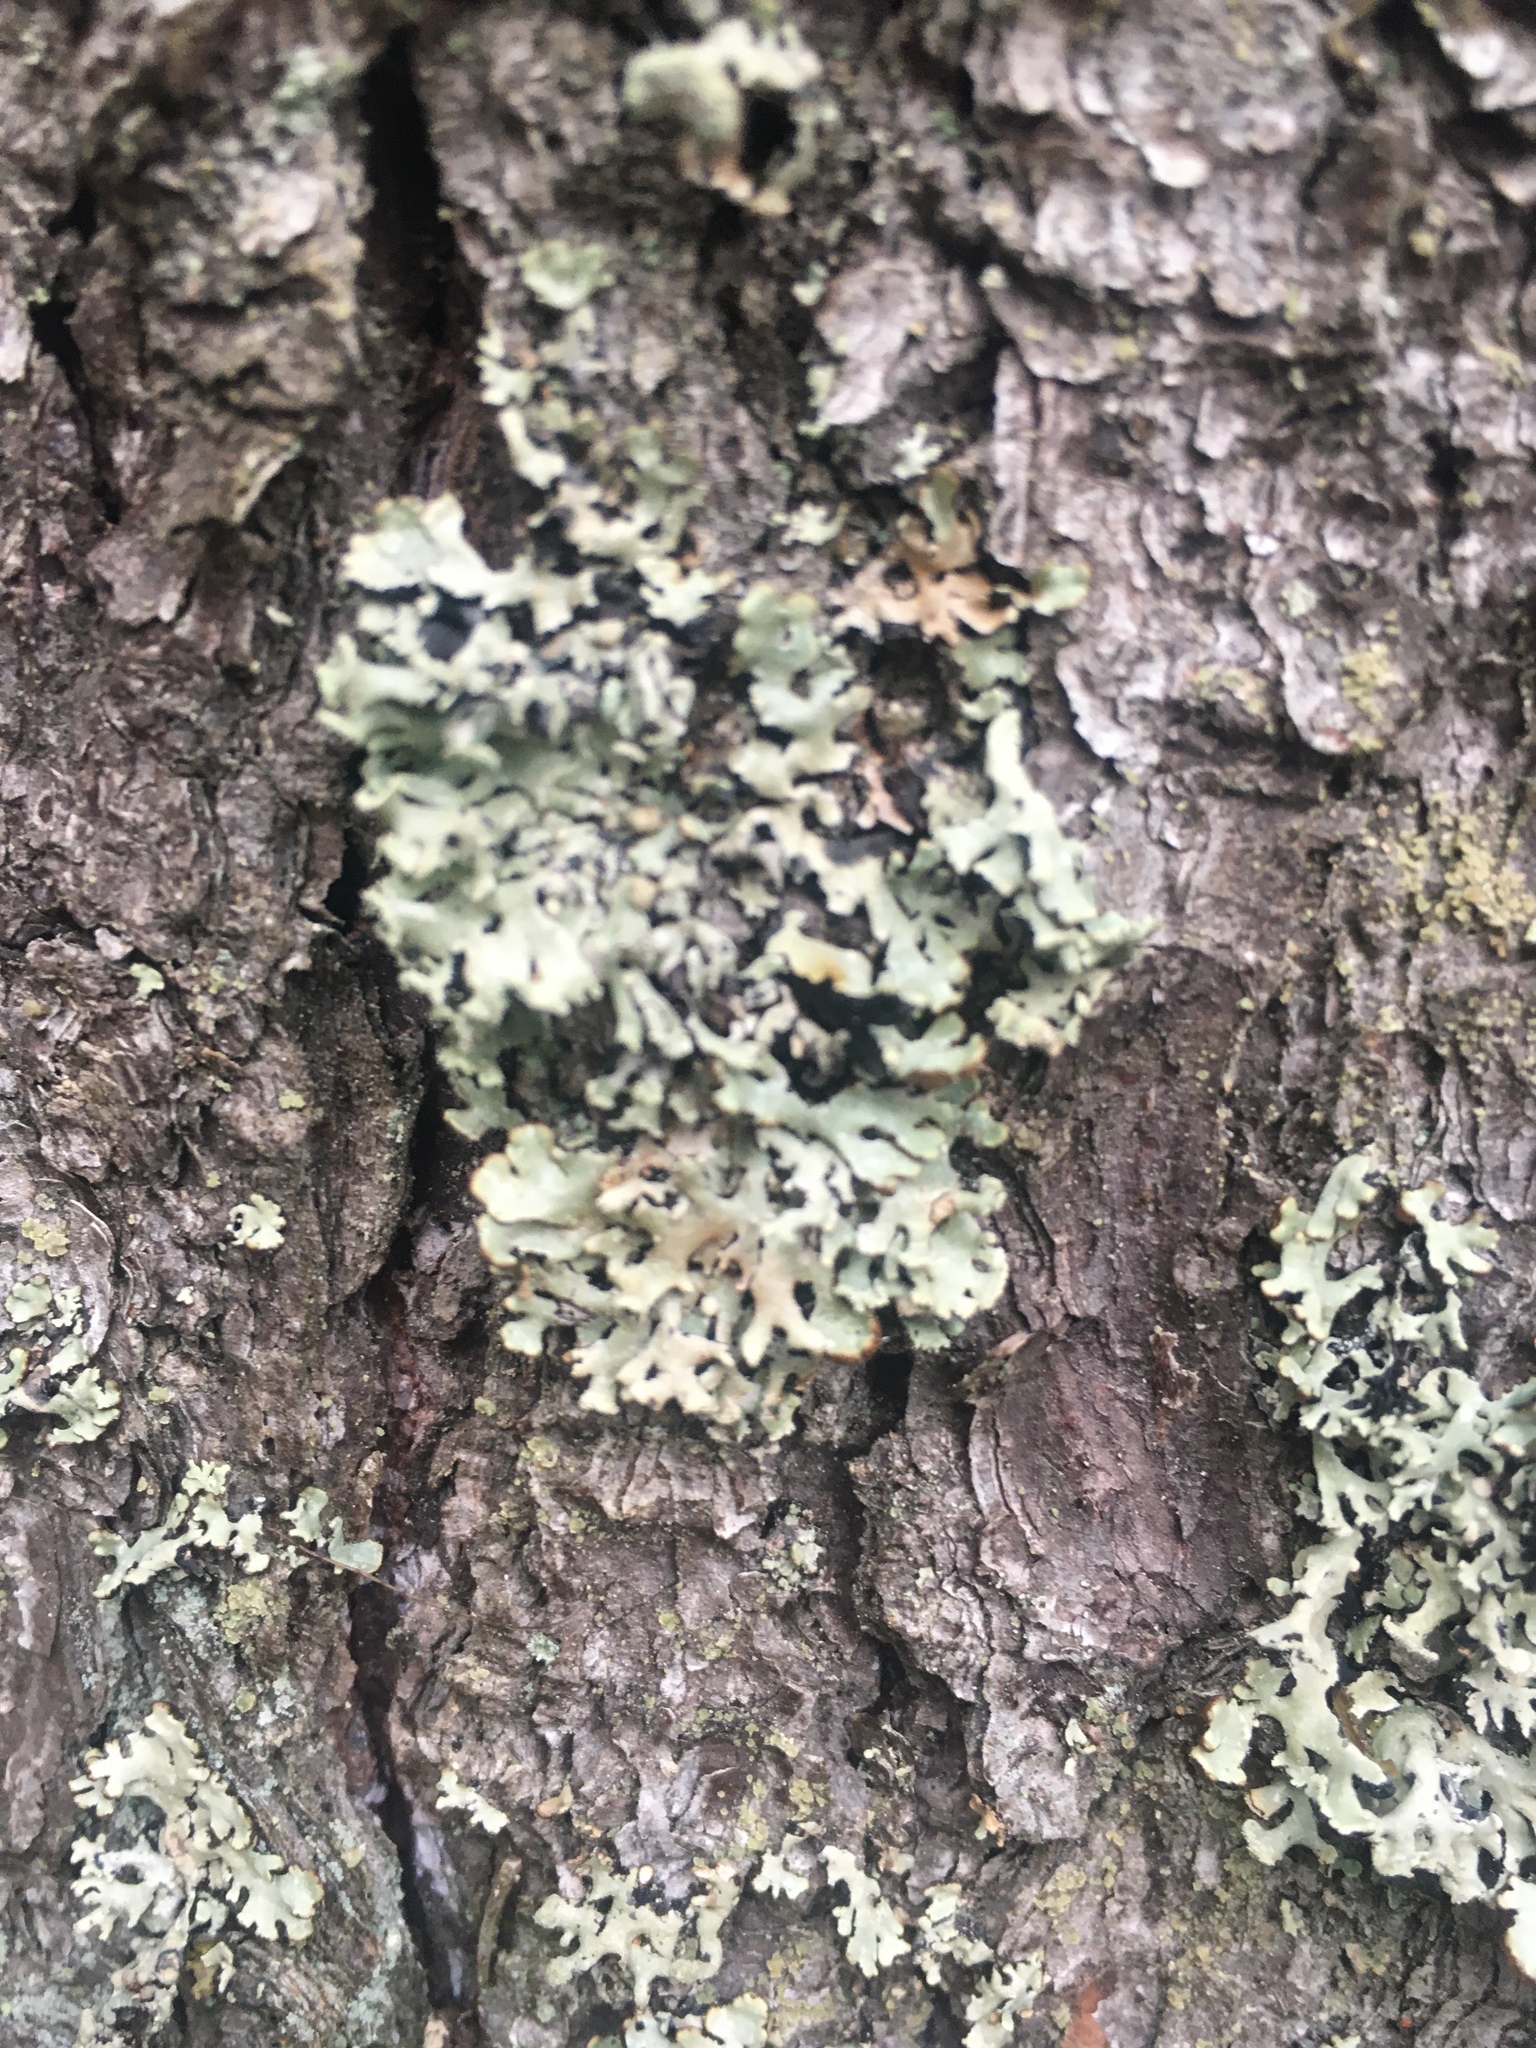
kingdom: Fungi
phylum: Ascomycota
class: Lecanoromycetes
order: Lecanorales
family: Parmeliaceae
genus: Hypogymnia
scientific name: Hypogymnia physodes
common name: Dark crottle
